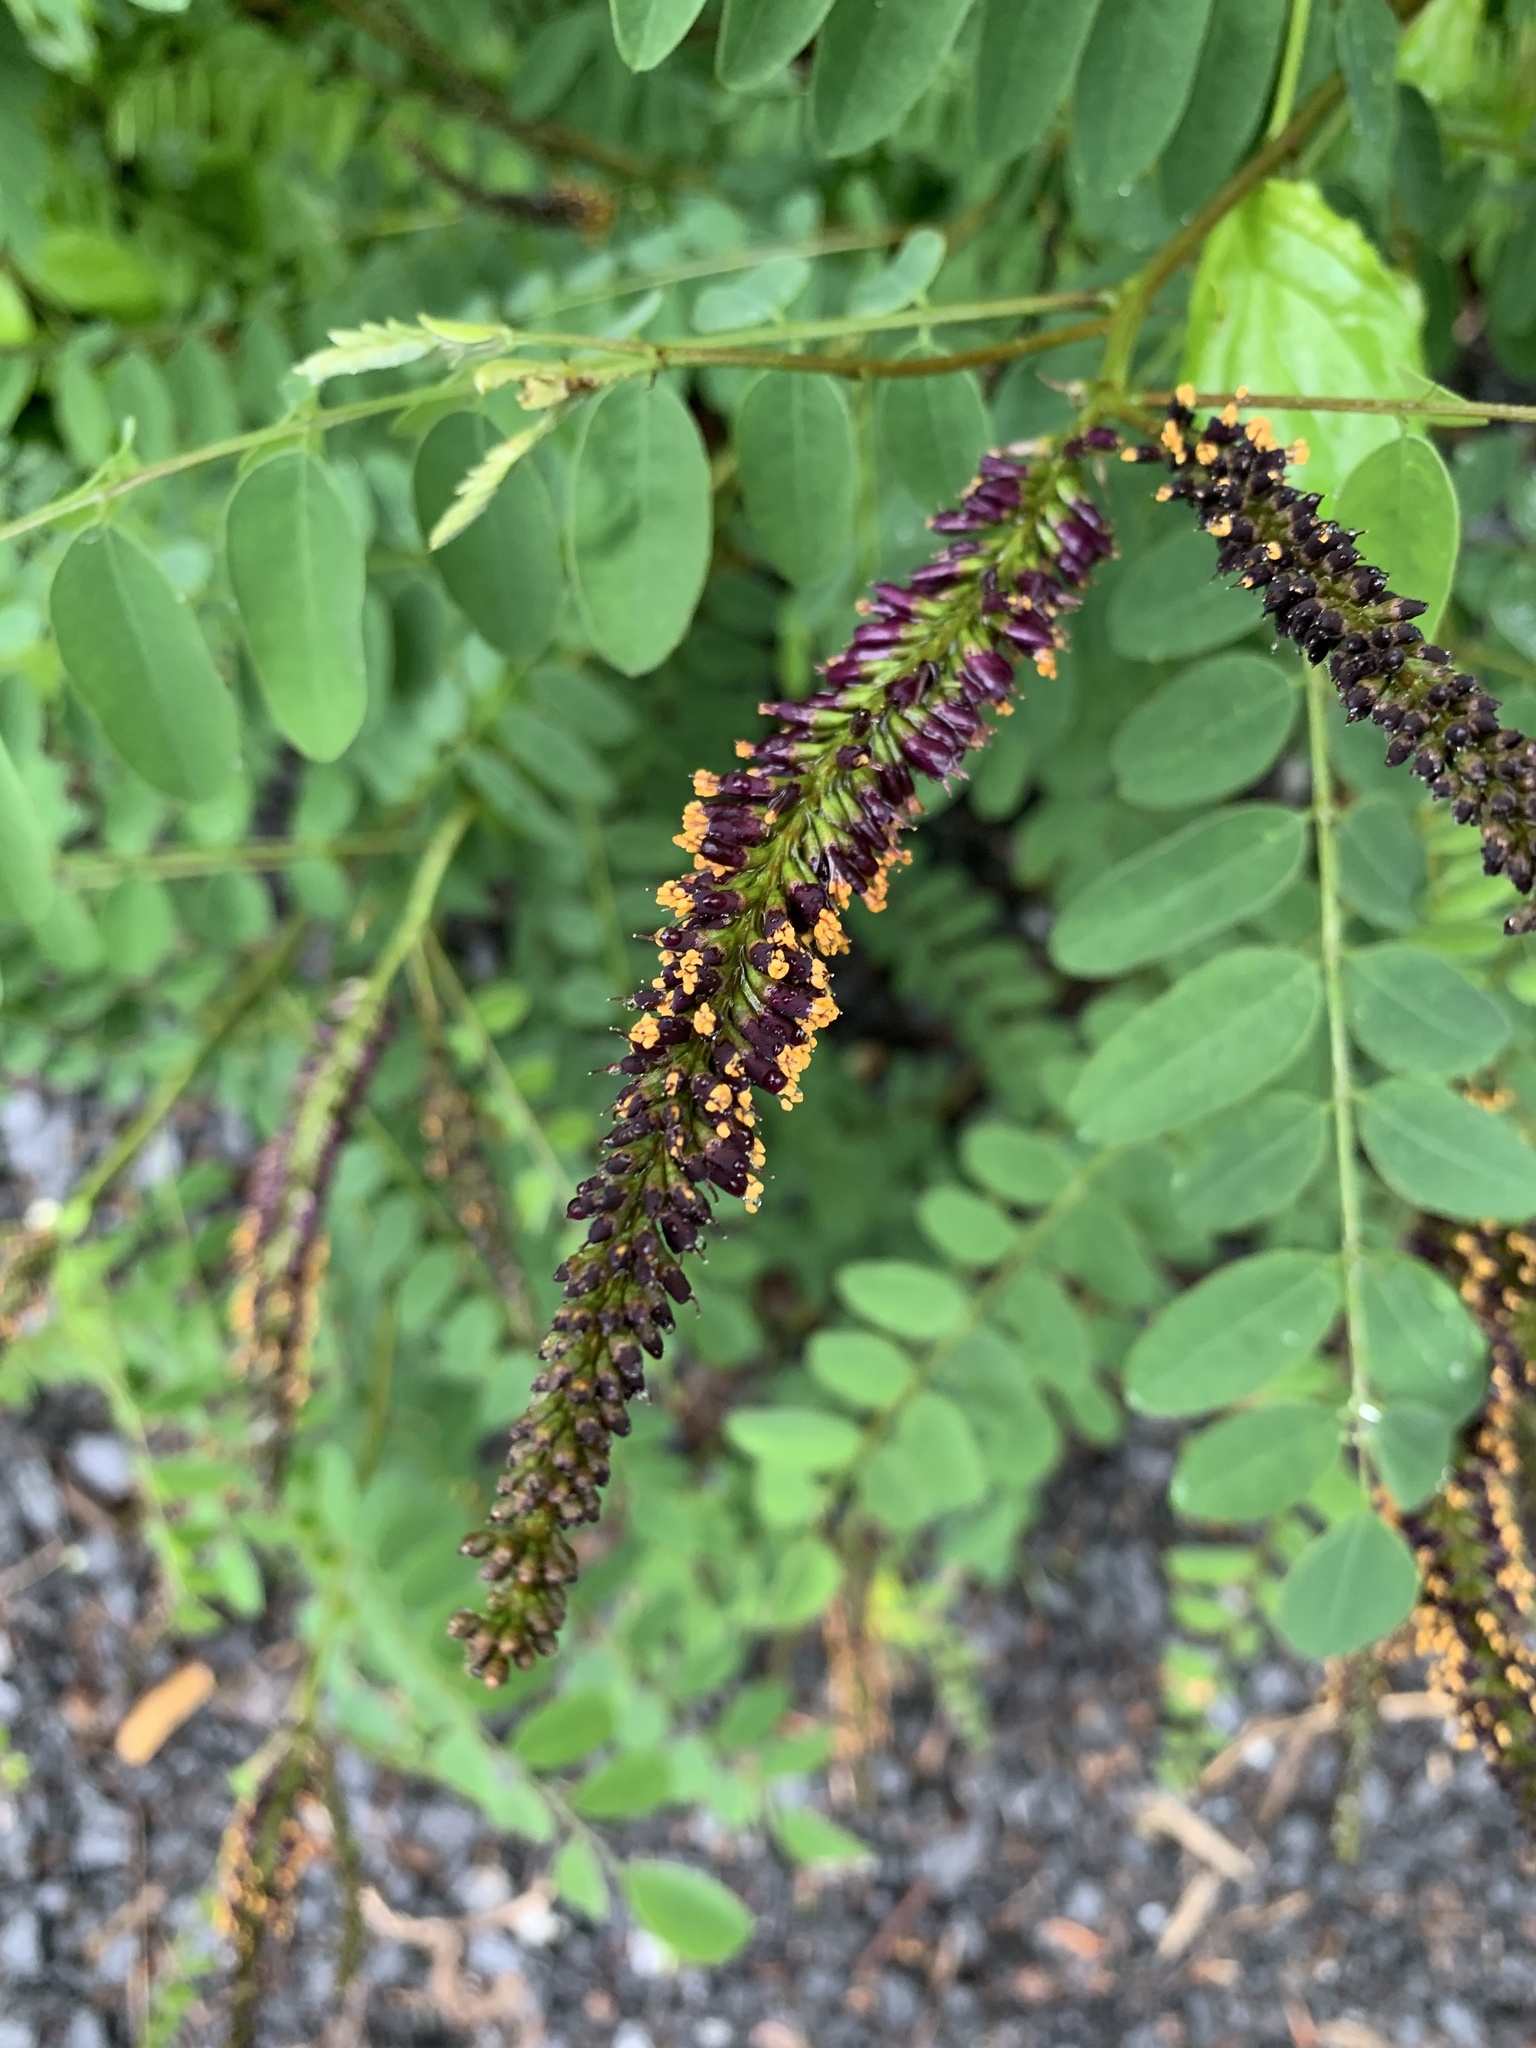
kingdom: Plantae
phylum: Tracheophyta
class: Magnoliopsida
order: Fabales
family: Fabaceae
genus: Amorpha
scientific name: Amorpha fruticosa
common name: False indigo
